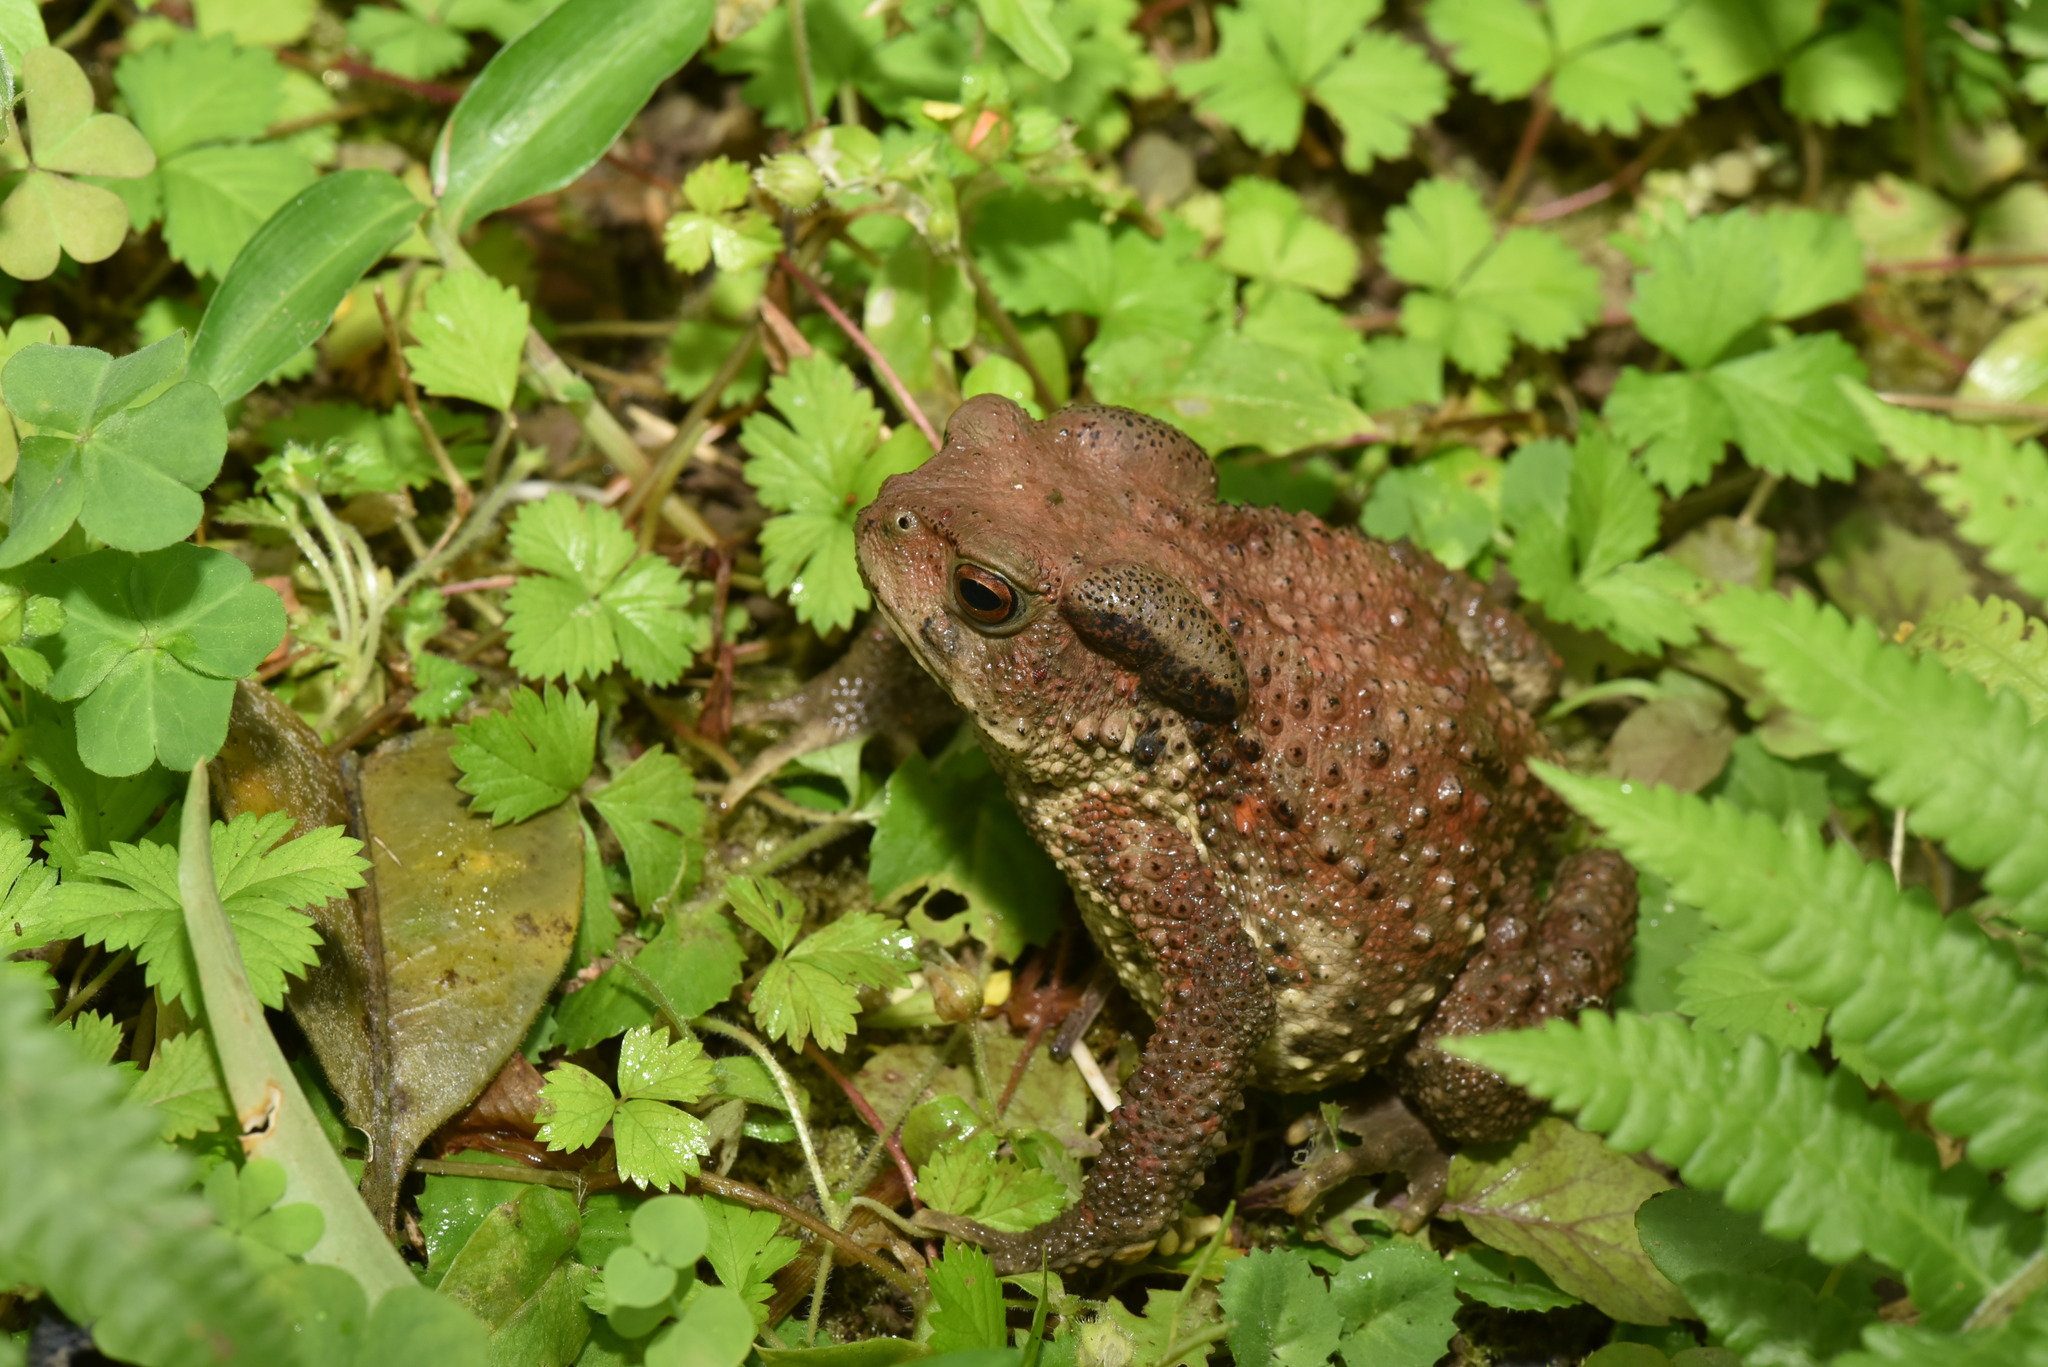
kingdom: Animalia
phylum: Chordata
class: Amphibia
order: Anura
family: Bufonidae
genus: Bufo
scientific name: Bufo bankorensis
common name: Bankor toad
